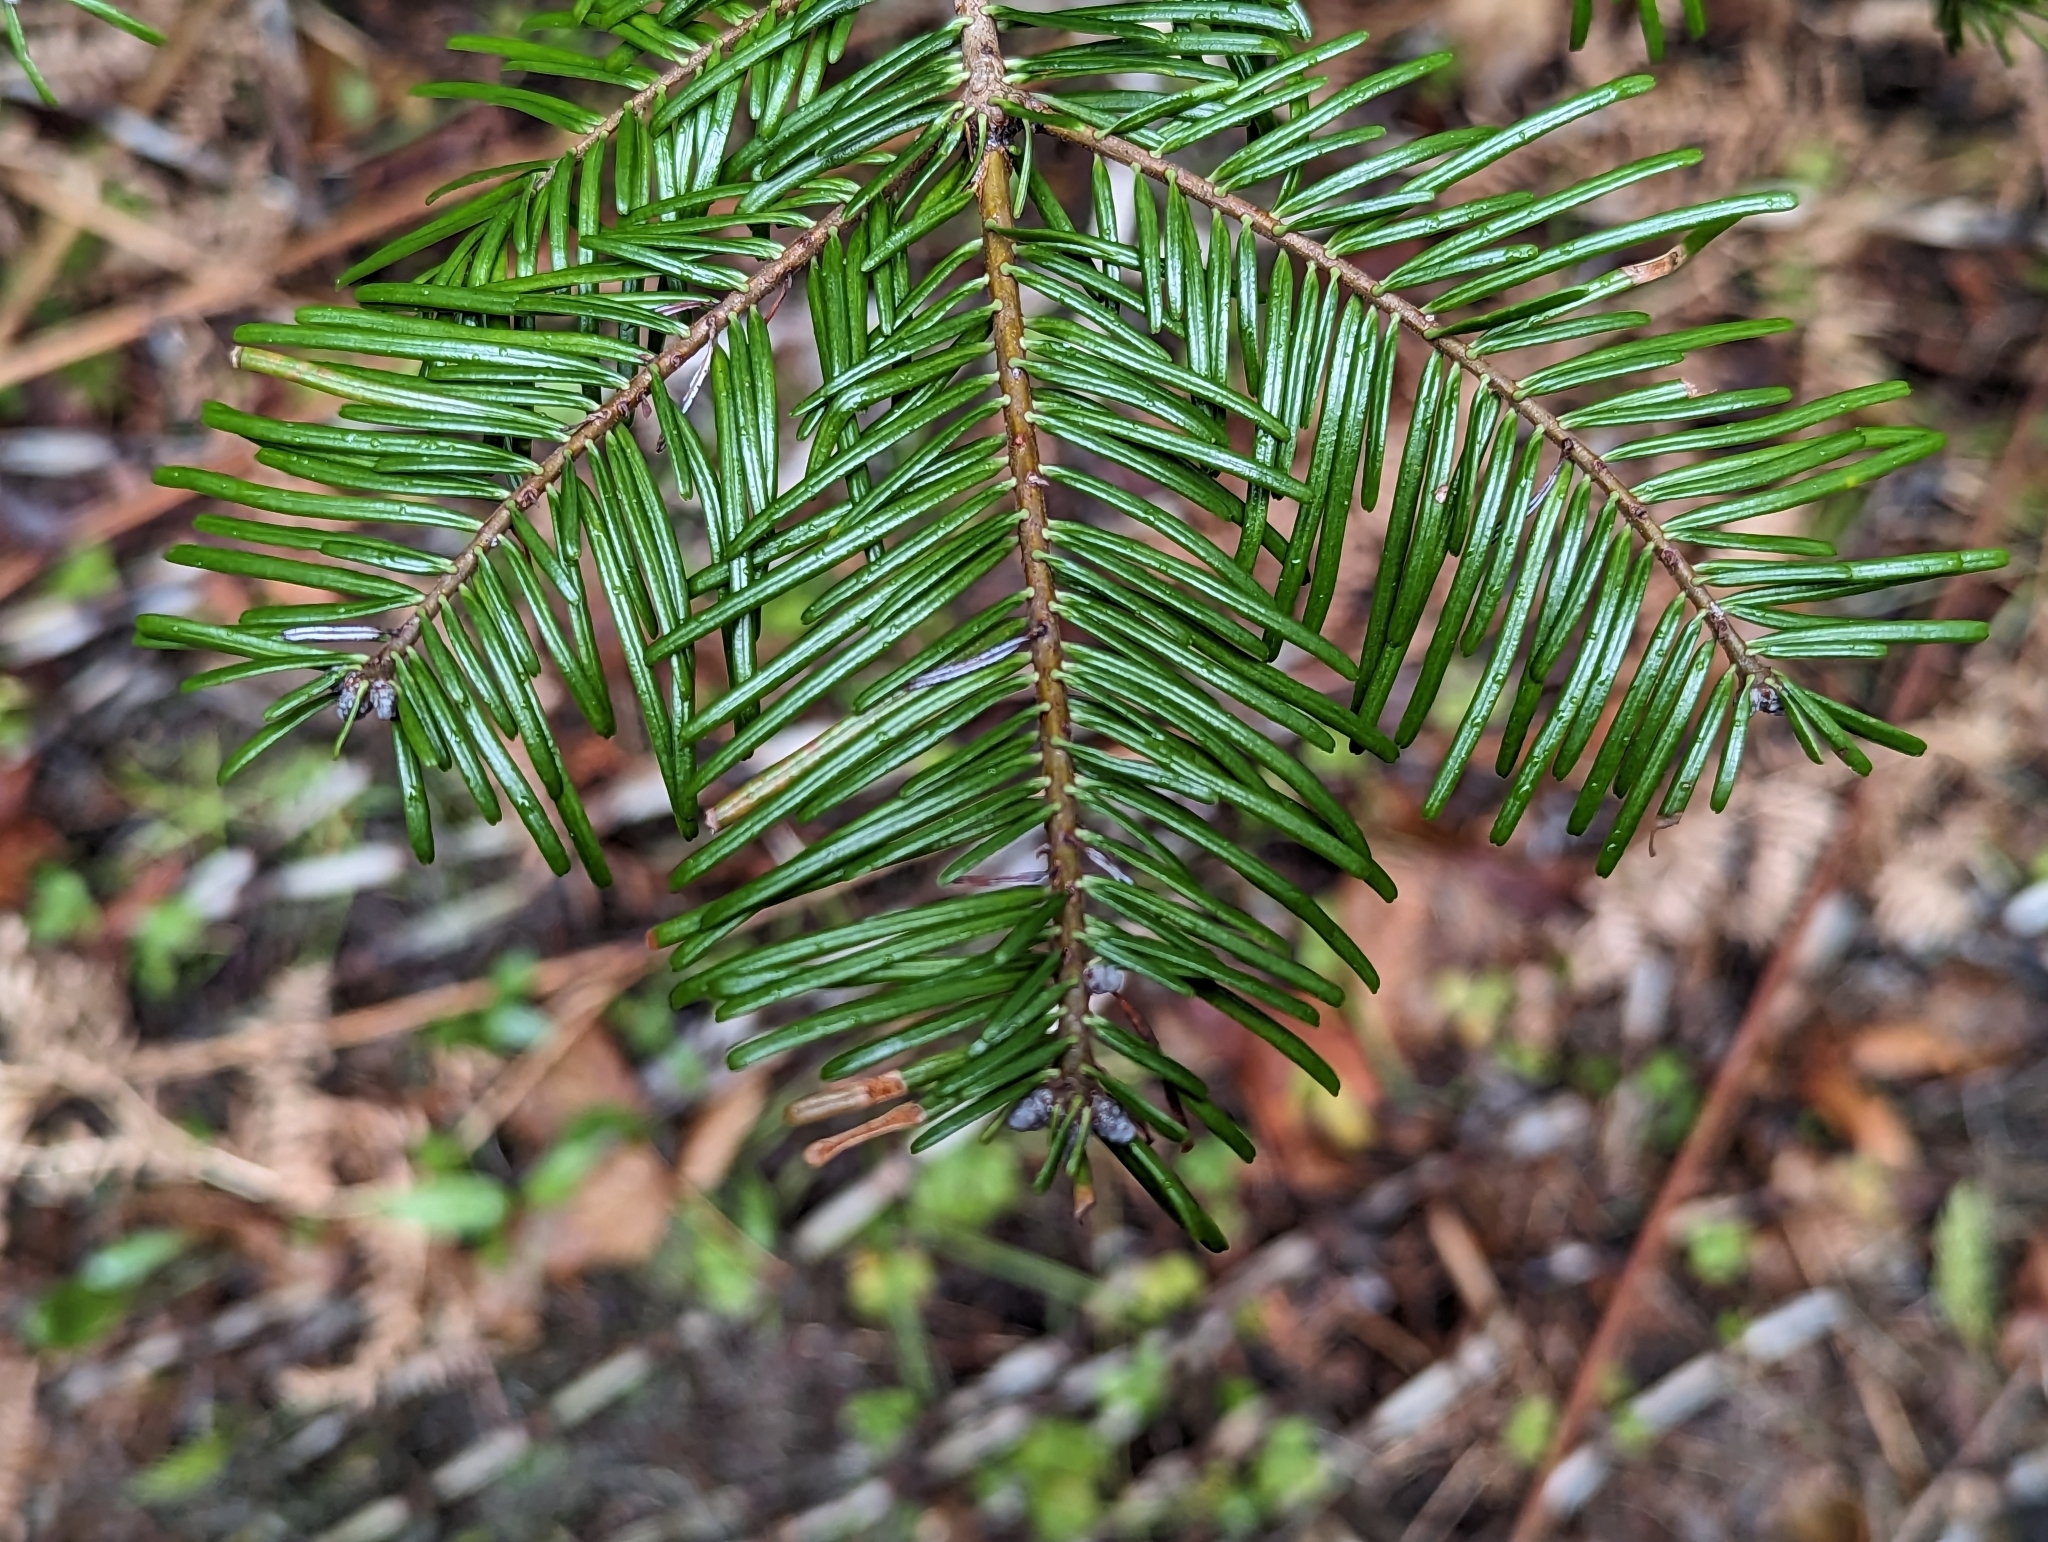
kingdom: Plantae
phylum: Tracheophyta
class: Pinopsida
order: Pinales
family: Pinaceae
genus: Abies
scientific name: Abies grandis
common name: Giant fir
